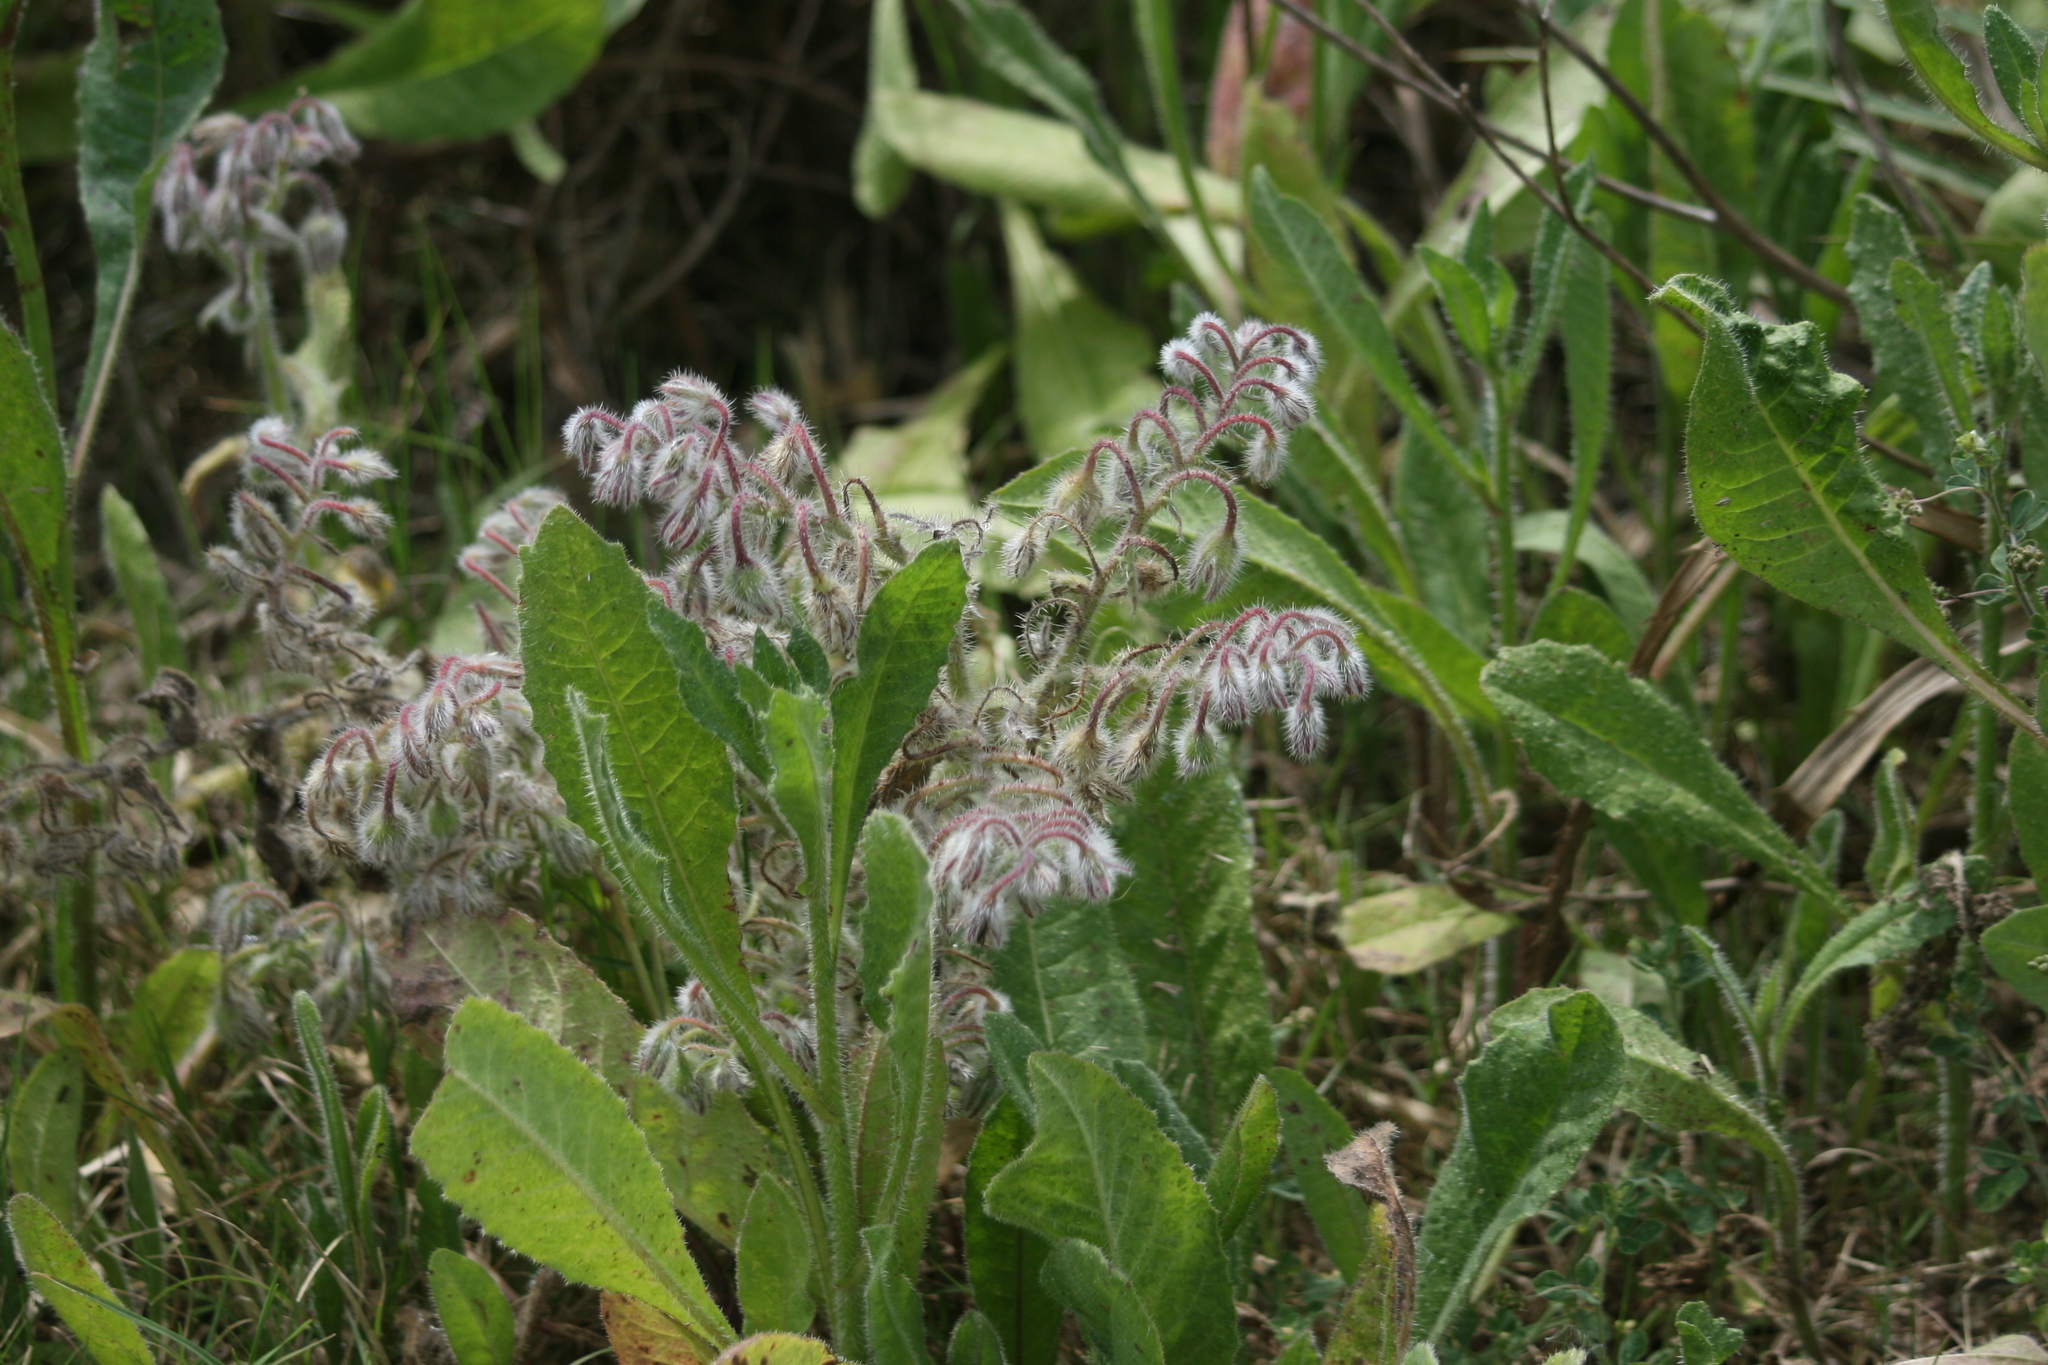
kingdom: Plantae
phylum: Tracheophyta
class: Magnoliopsida
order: Boraginales
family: Boraginaceae
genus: Borago
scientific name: Borago officinalis
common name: Borage
